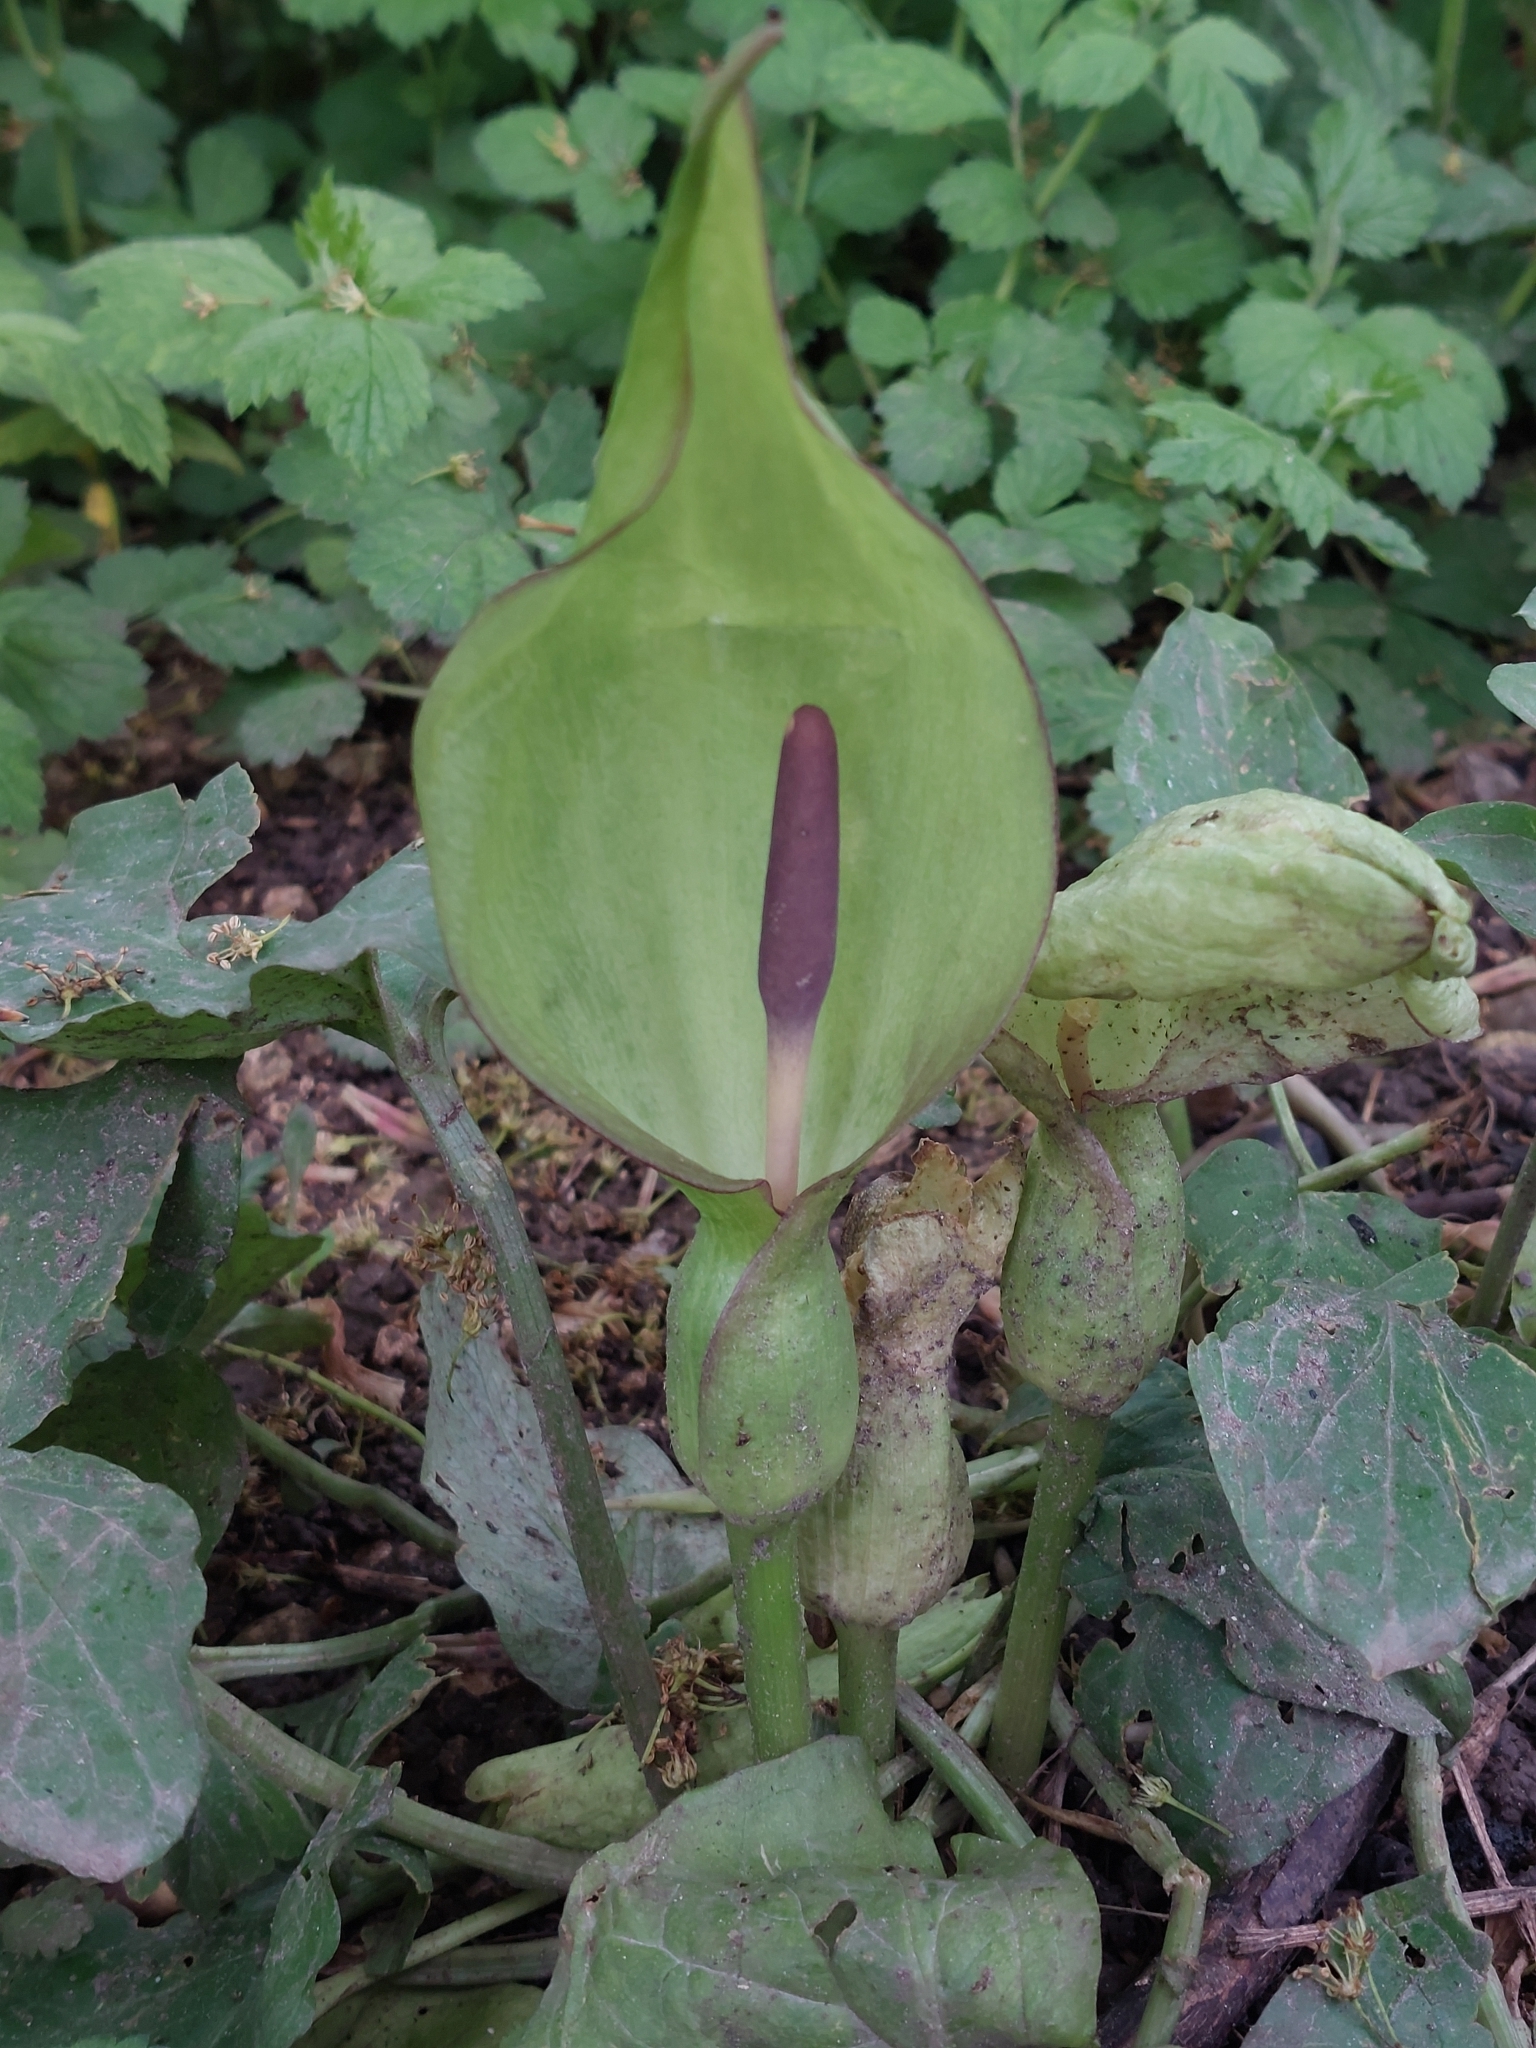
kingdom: Plantae
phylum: Tracheophyta
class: Liliopsida
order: Alismatales
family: Araceae
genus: Arum
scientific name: Arum maculatum
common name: Lords-and-ladies
